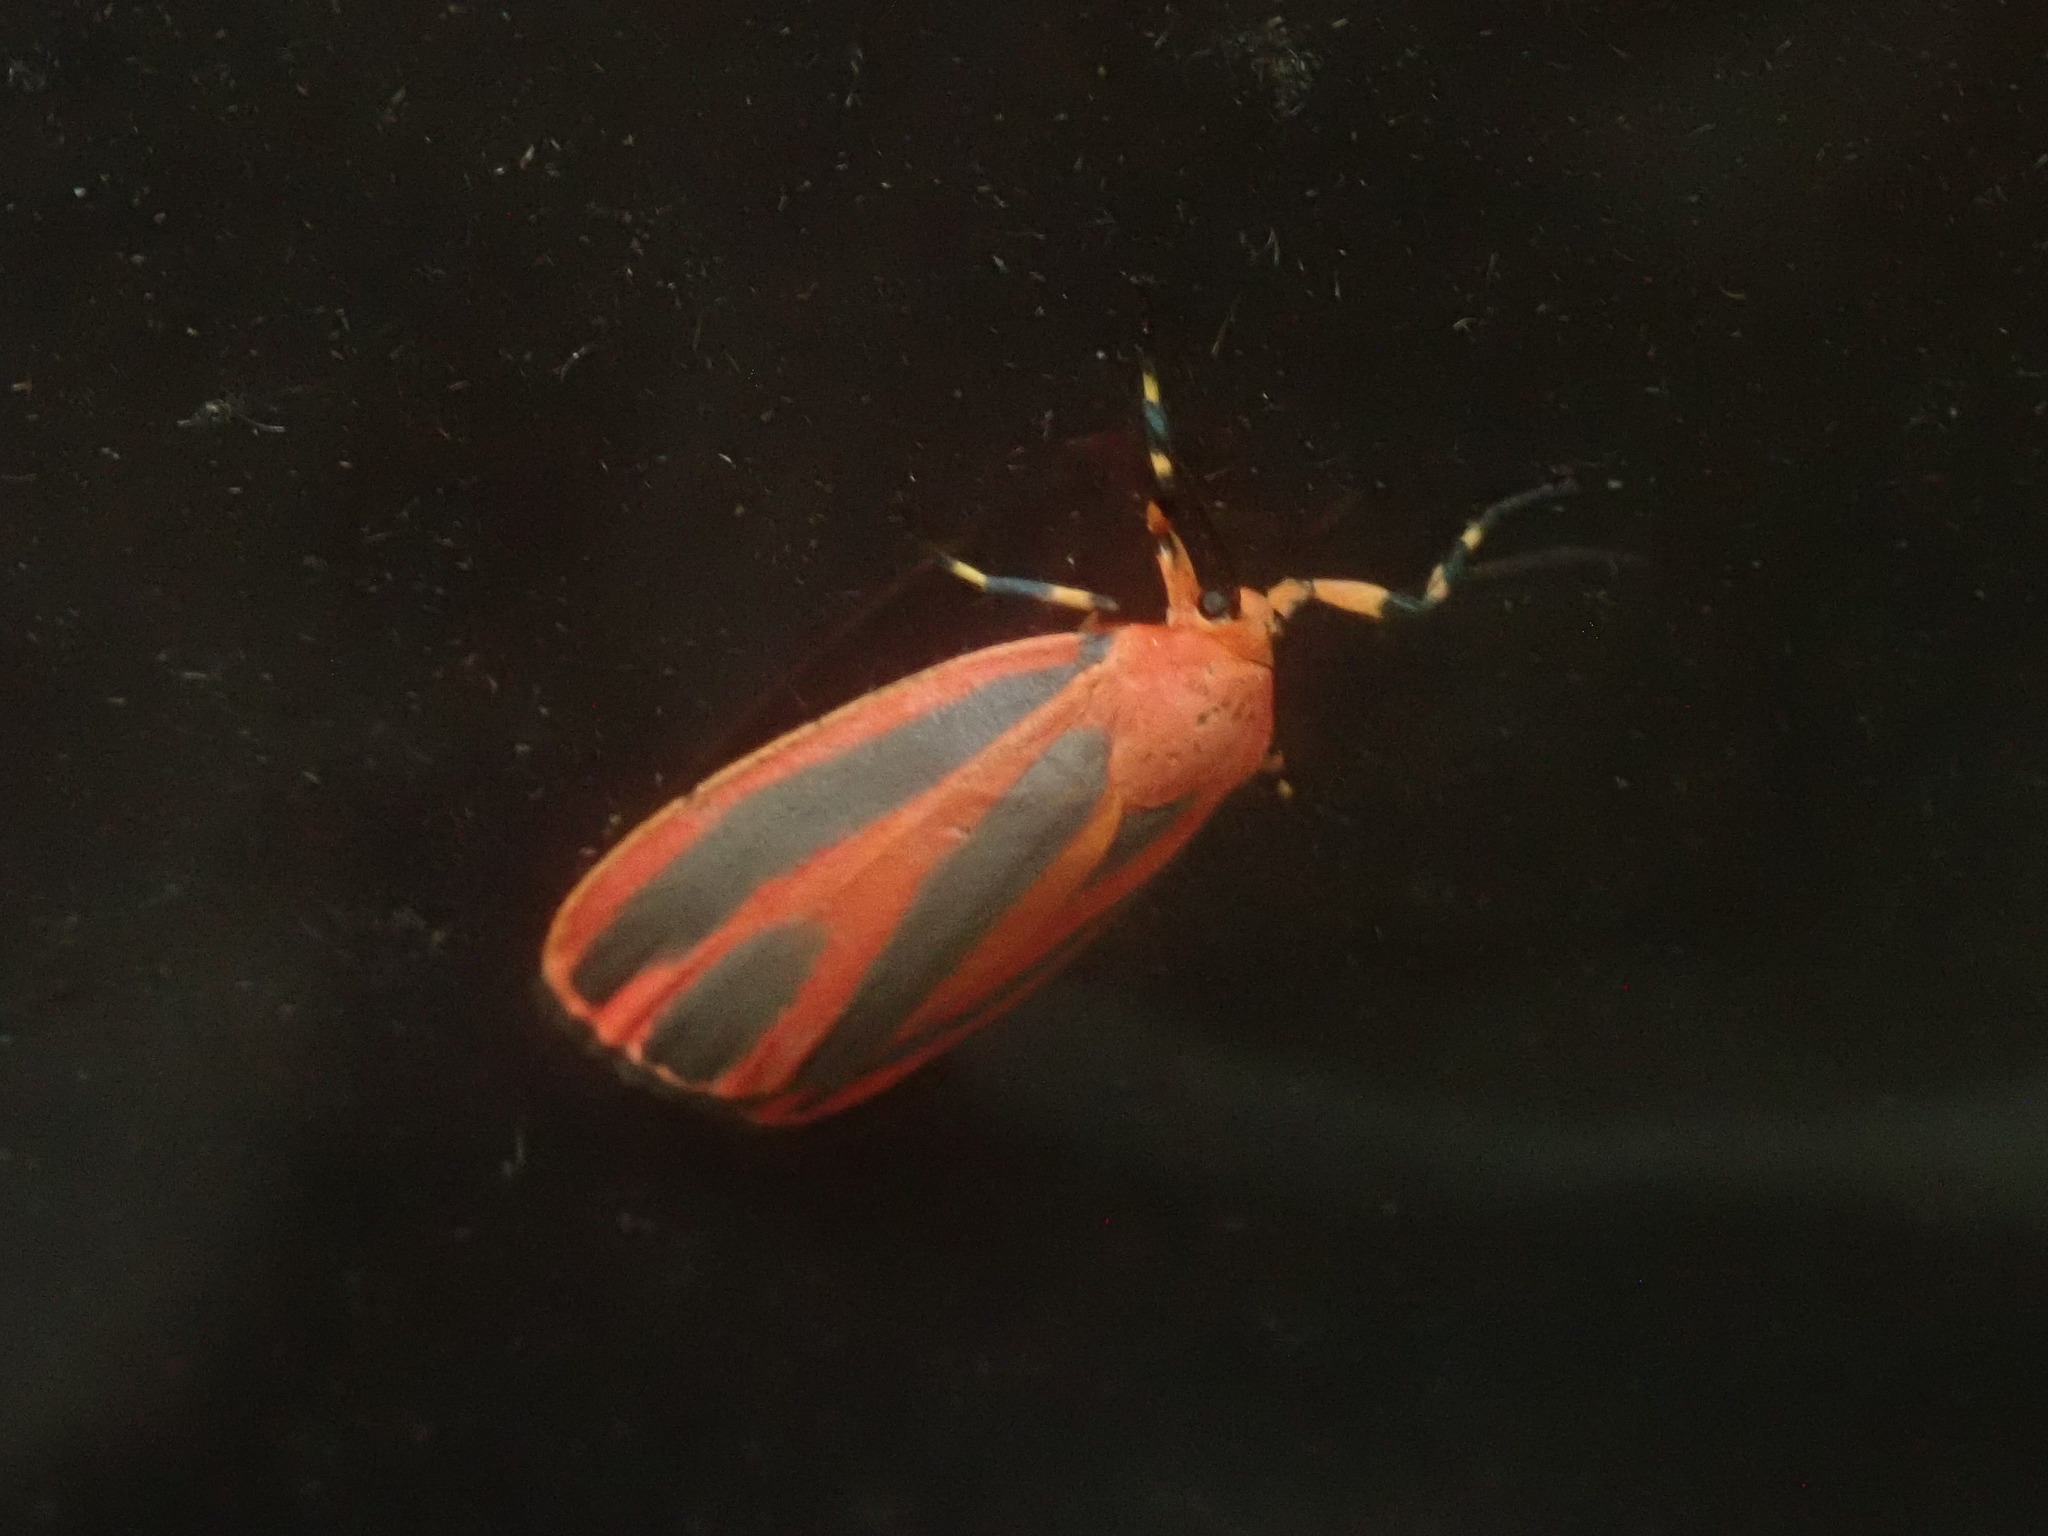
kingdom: Animalia
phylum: Arthropoda
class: Insecta
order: Lepidoptera
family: Erebidae
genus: Hypoprepia
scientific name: Hypoprepia miniata
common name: Scarlet-winged lichen moth
